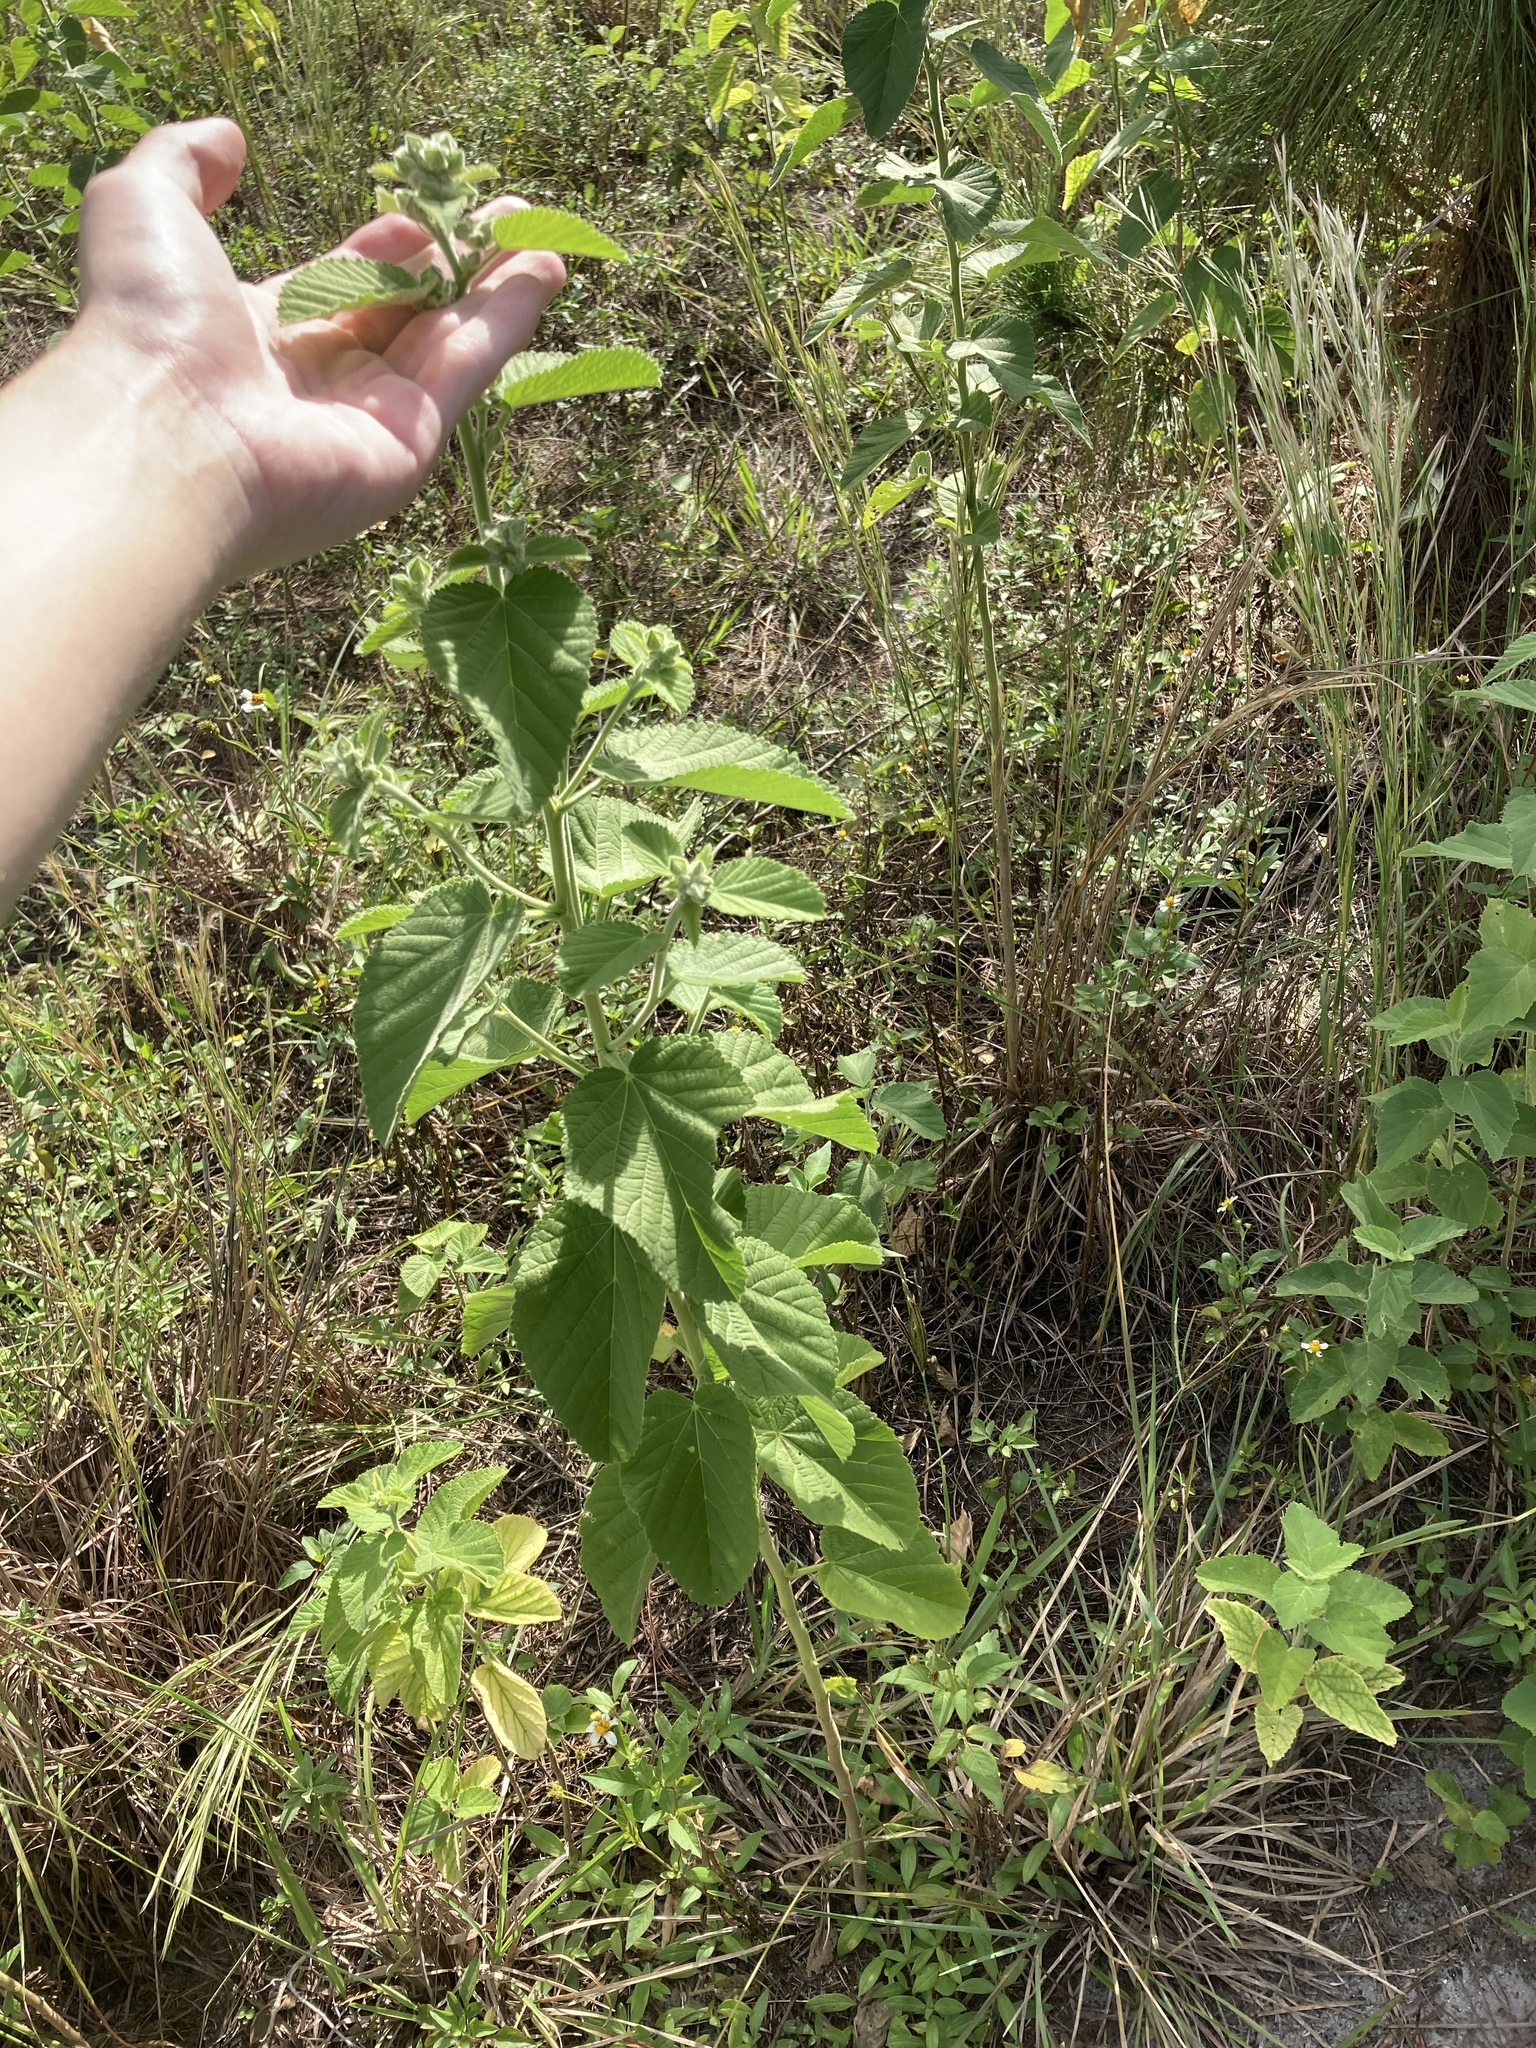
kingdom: Plantae
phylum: Tracheophyta
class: Magnoliopsida
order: Malvales
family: Malvaceae
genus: Sida
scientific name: Sida cordifolia
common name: Ilima
